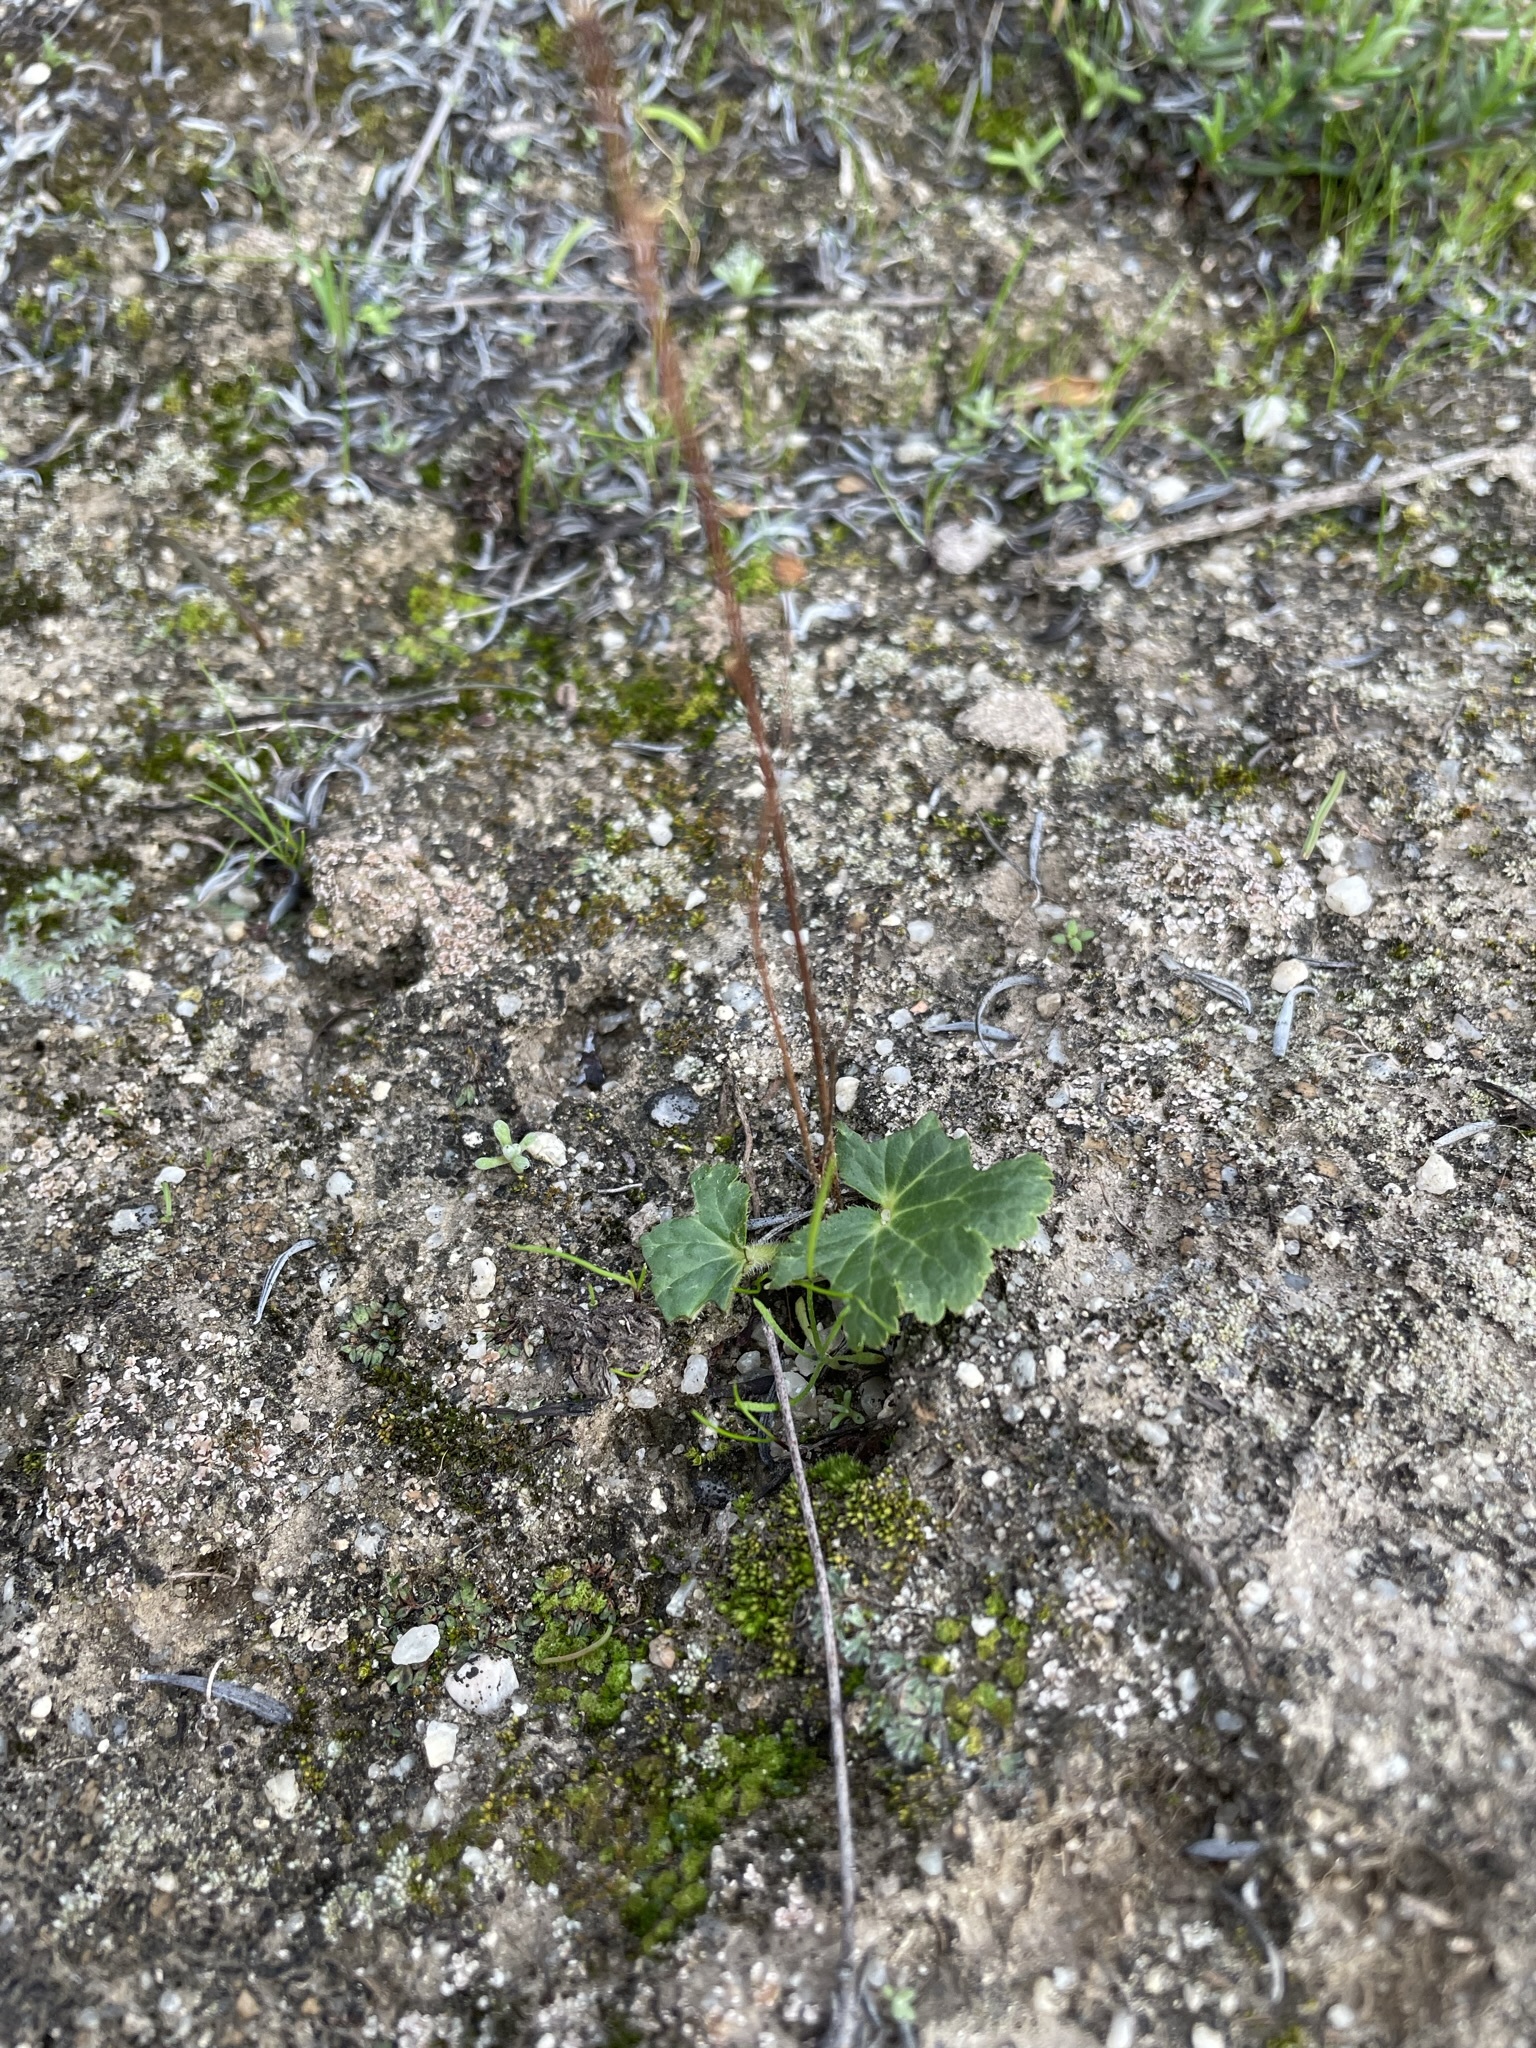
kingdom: Plantae
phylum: Tracheophyta
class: Magnoliopsida
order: Saxifragales
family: Saxifragaceae
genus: Jepsonia
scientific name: Jepsonia parryi
